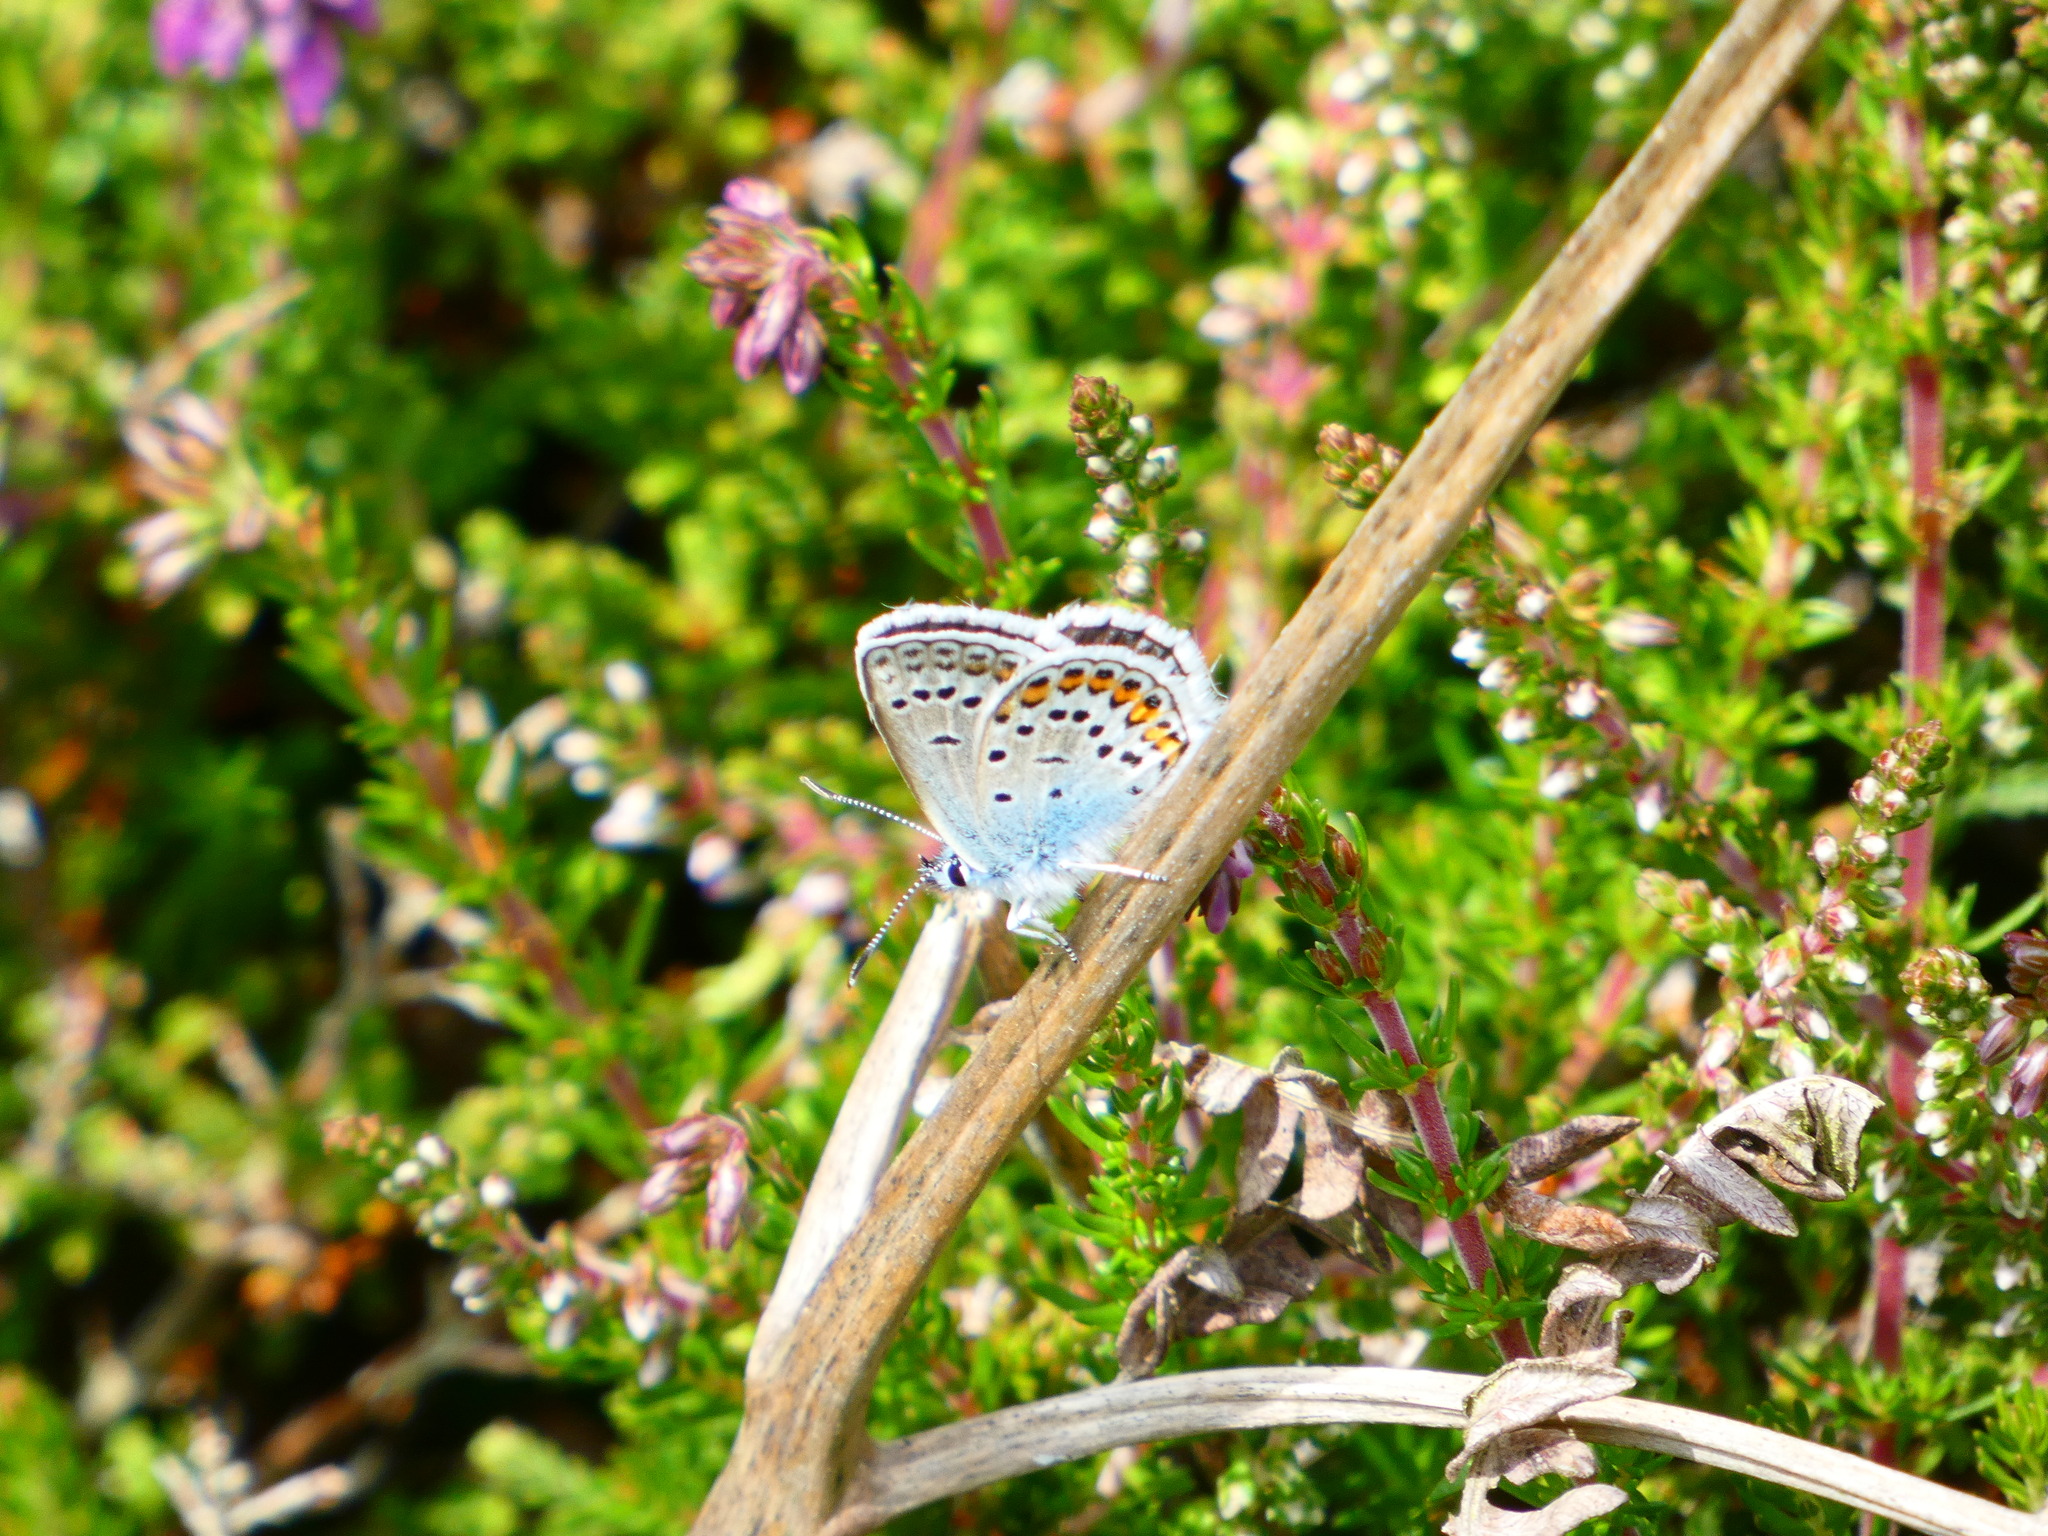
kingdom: Animalia
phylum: Arthropoda
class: Insecta
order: Lepidoptera
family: Lycaenidae
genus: Plebejus
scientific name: Plebejus argus
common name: Silver-studded blue
